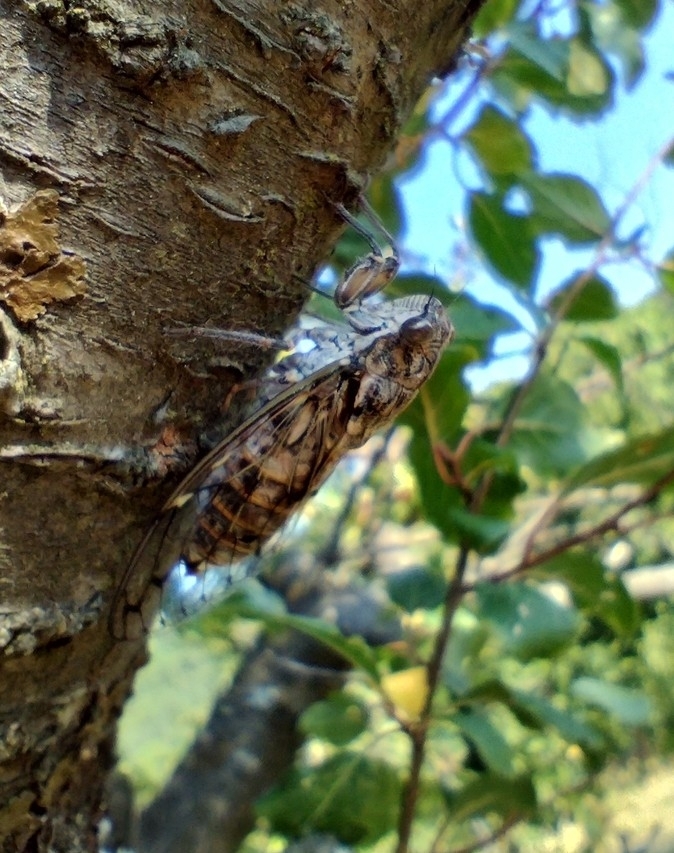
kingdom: Animalia
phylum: Arthropoda
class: Insecta
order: Hemiptera
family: Cicadidae
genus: Cicada
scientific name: Cicada orni
